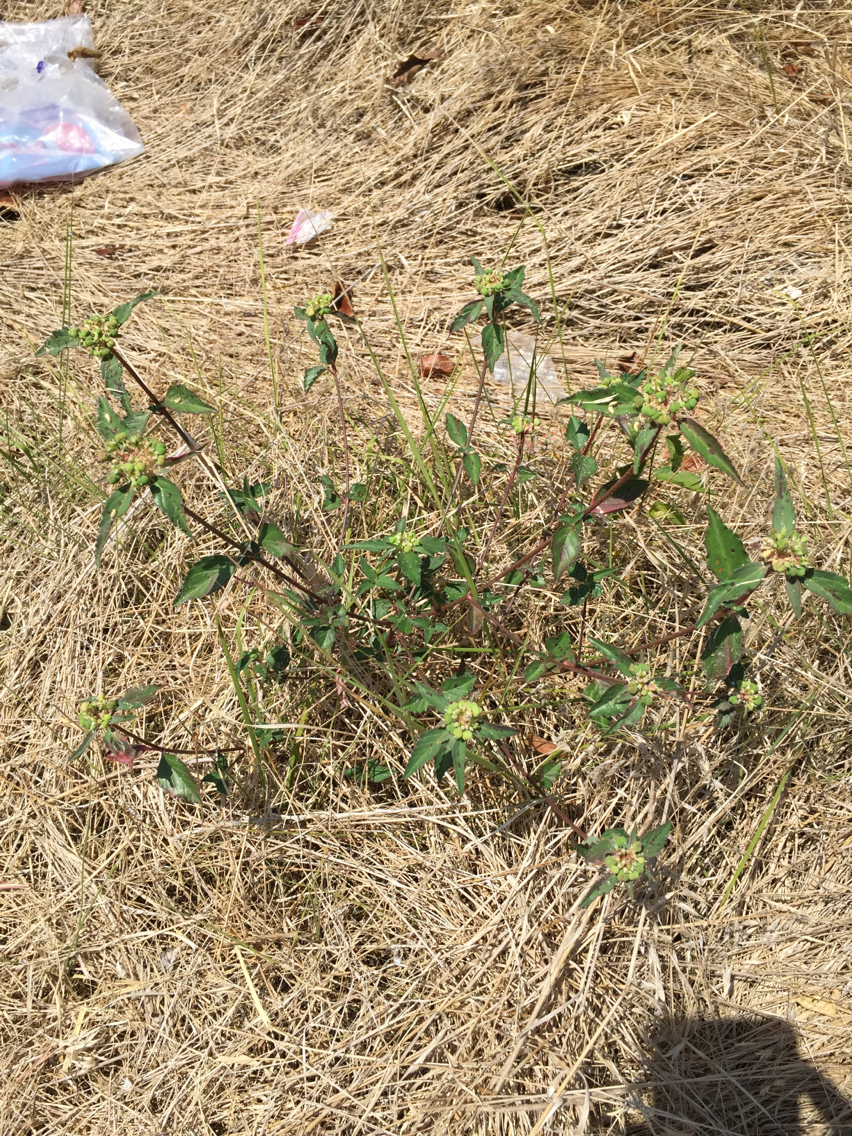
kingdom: Plantae
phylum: Tracheophyta
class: Magnoliopsida
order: Malpighiales
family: Euphorbiaceae
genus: Euphorbia
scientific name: Euphorbia dentata
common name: Dentate spurge
